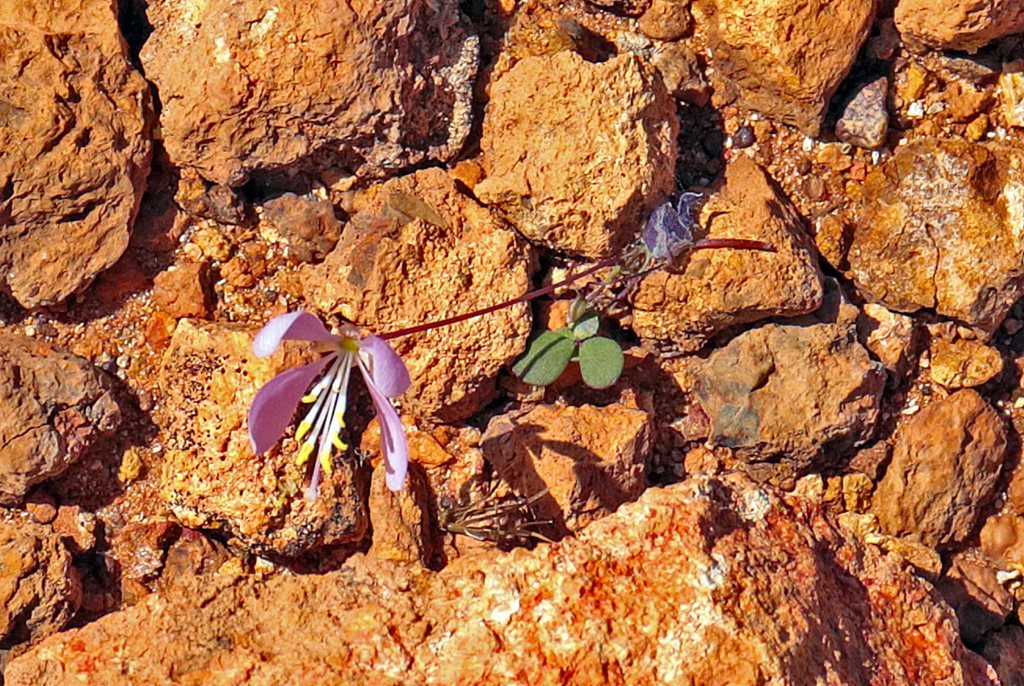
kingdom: Plantae
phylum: Tracheophyta
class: Magnoliopsida
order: Brassicales
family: Cleomaceae
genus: Areocleome
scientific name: Areocleome oxalidea
